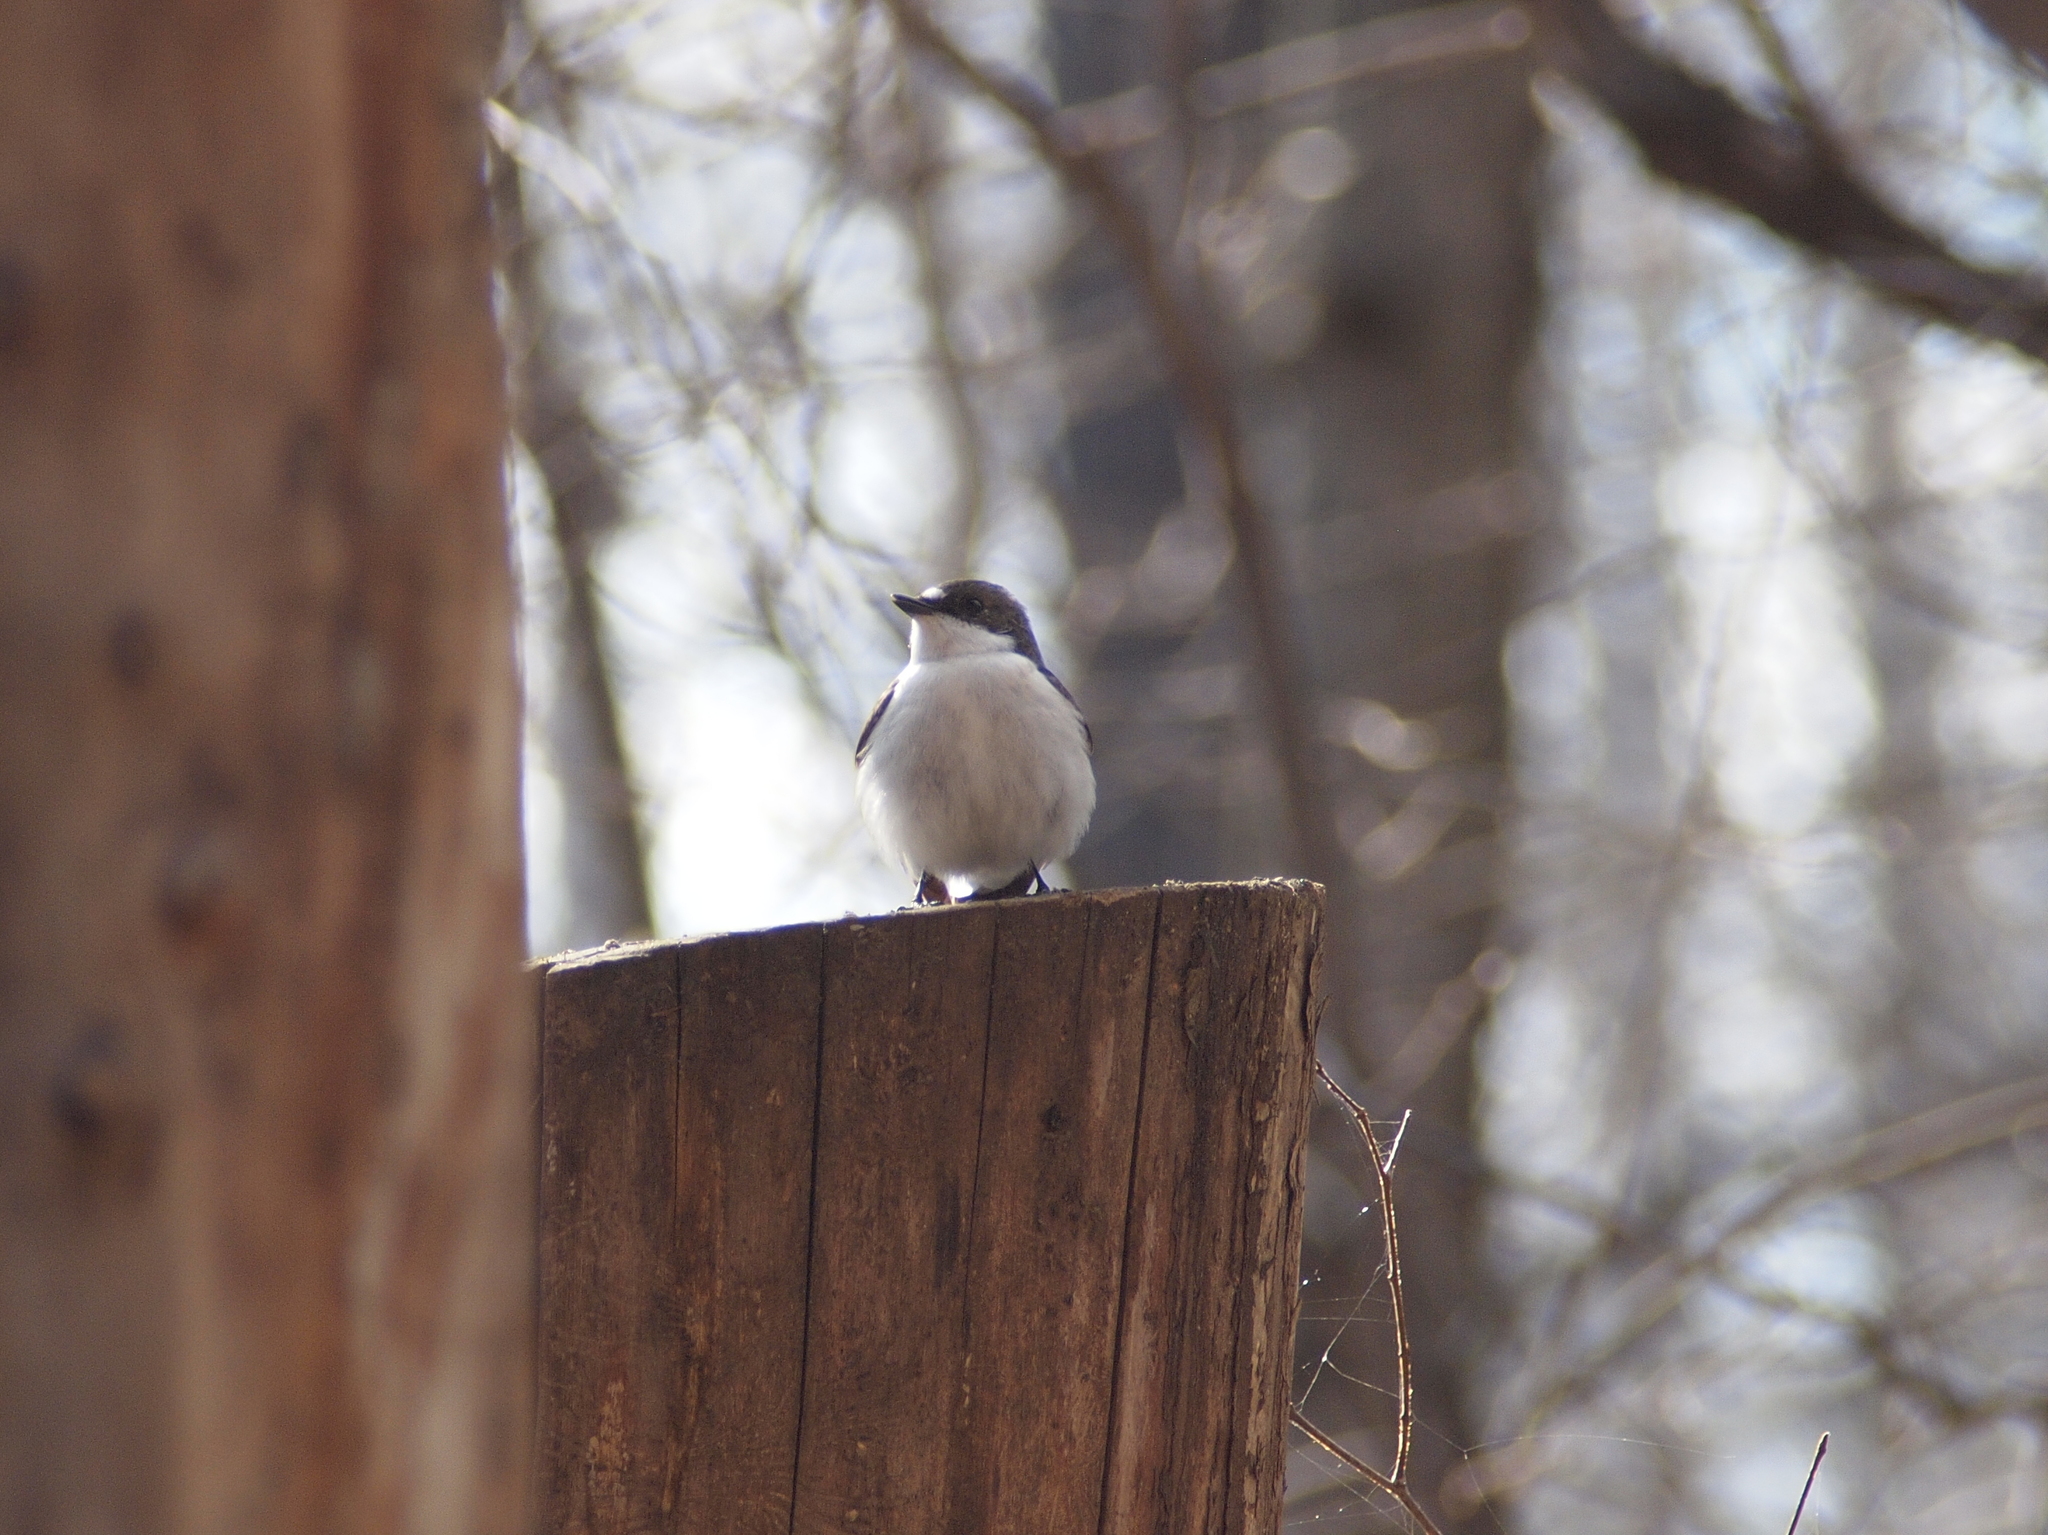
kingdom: Animalia
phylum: Chordata
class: Aves
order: Passeriformes
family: Muscicapidae
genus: Ficedula
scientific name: Ficedula hypoleuca
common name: European pied flycatcher
